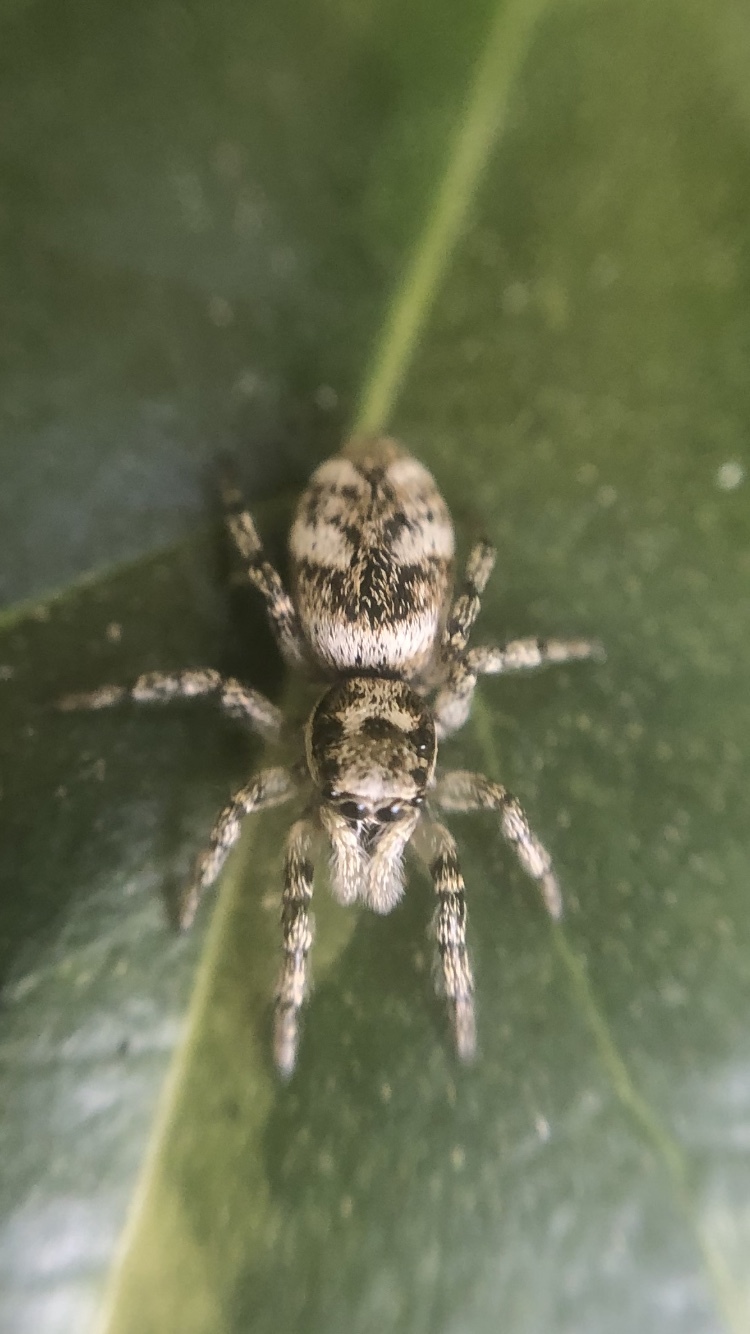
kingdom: Animalia
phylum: Arthropoda
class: Arachnida
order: Araneae
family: Salticidae
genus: Salticus
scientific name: Salticus scenicus
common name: Zebra jumper
